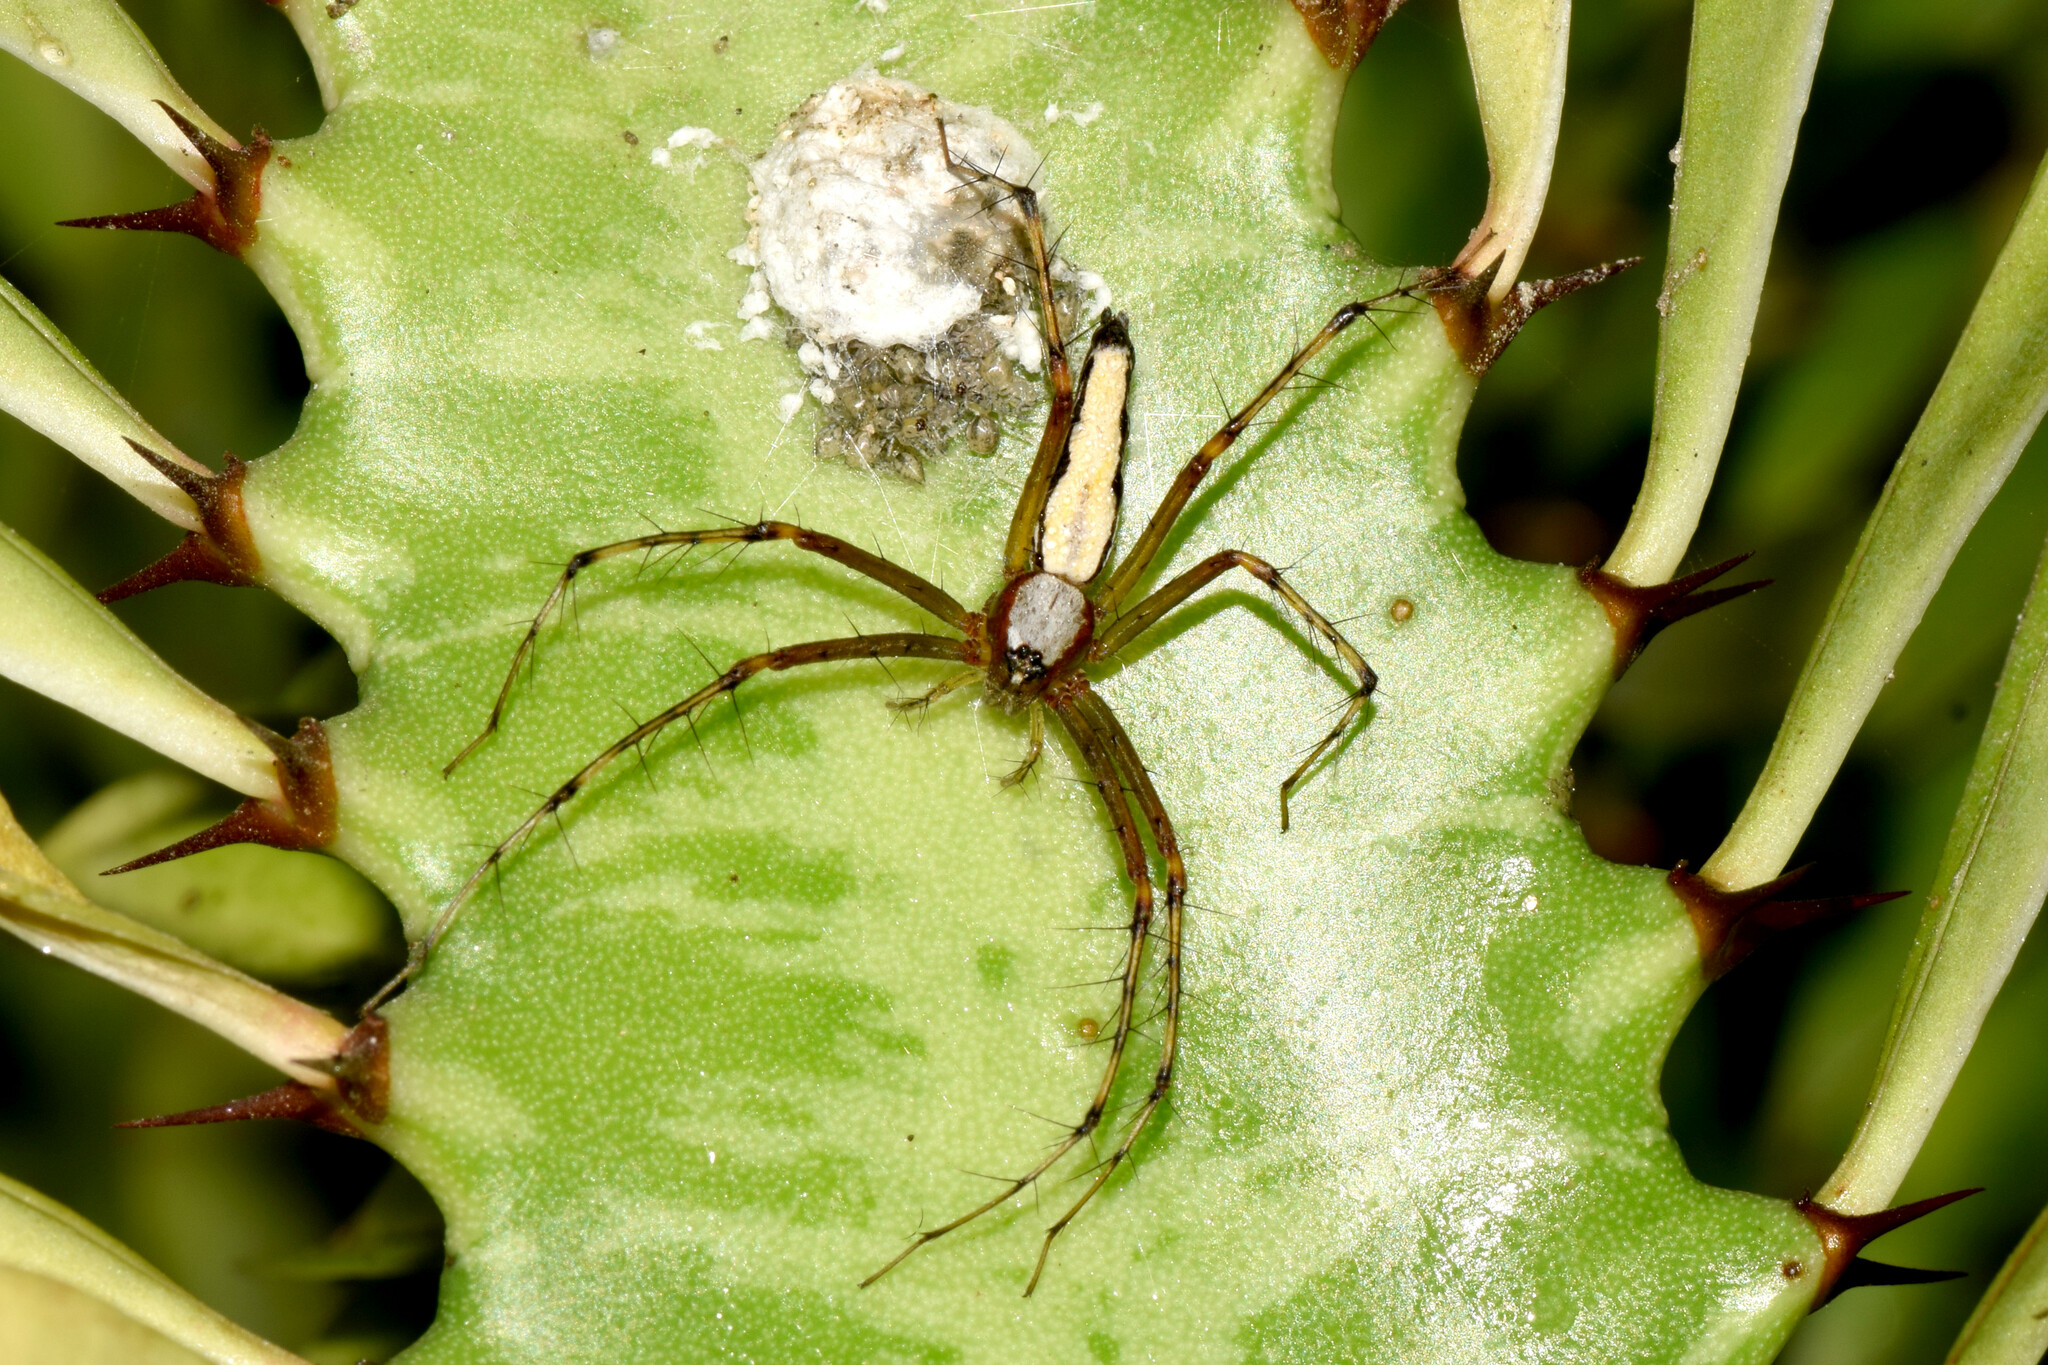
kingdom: Animalia
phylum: Arthropoda
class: Arachnida
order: Araneae
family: Oxyopidae
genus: Oxyopes
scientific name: Oxyopes shweta
